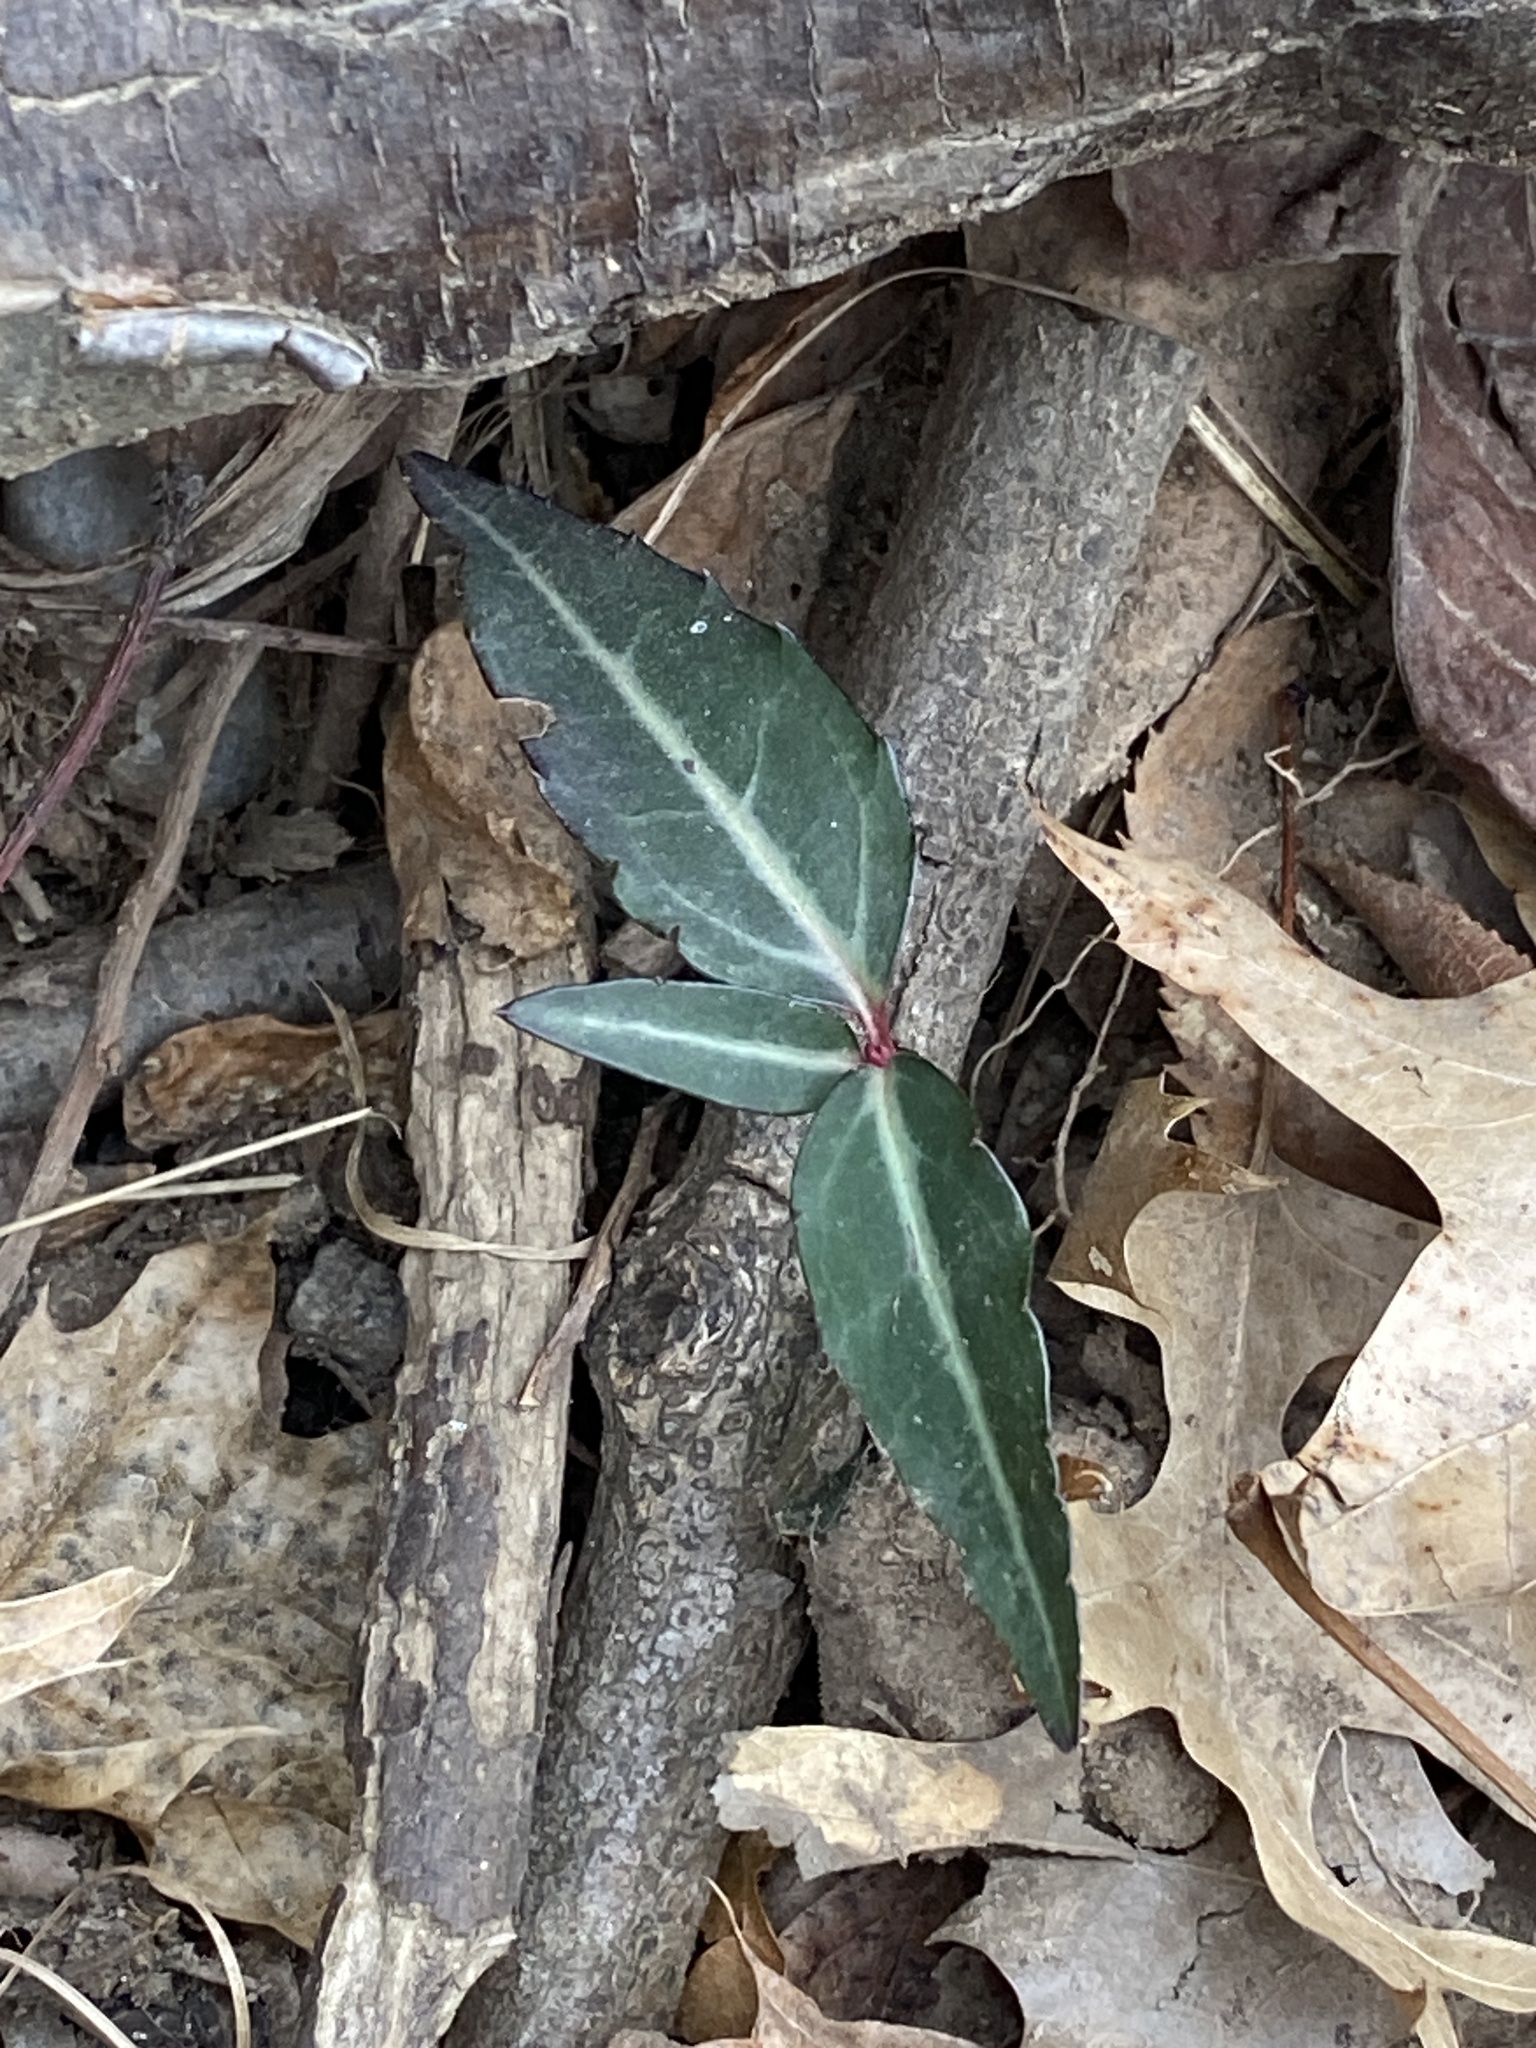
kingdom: Plantae
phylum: Tracheophyta
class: Magnoliopsida
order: Ericales
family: Ericaceae
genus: Chimaphila
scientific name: Chimaphila maculata
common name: Spotted pipsissewa
